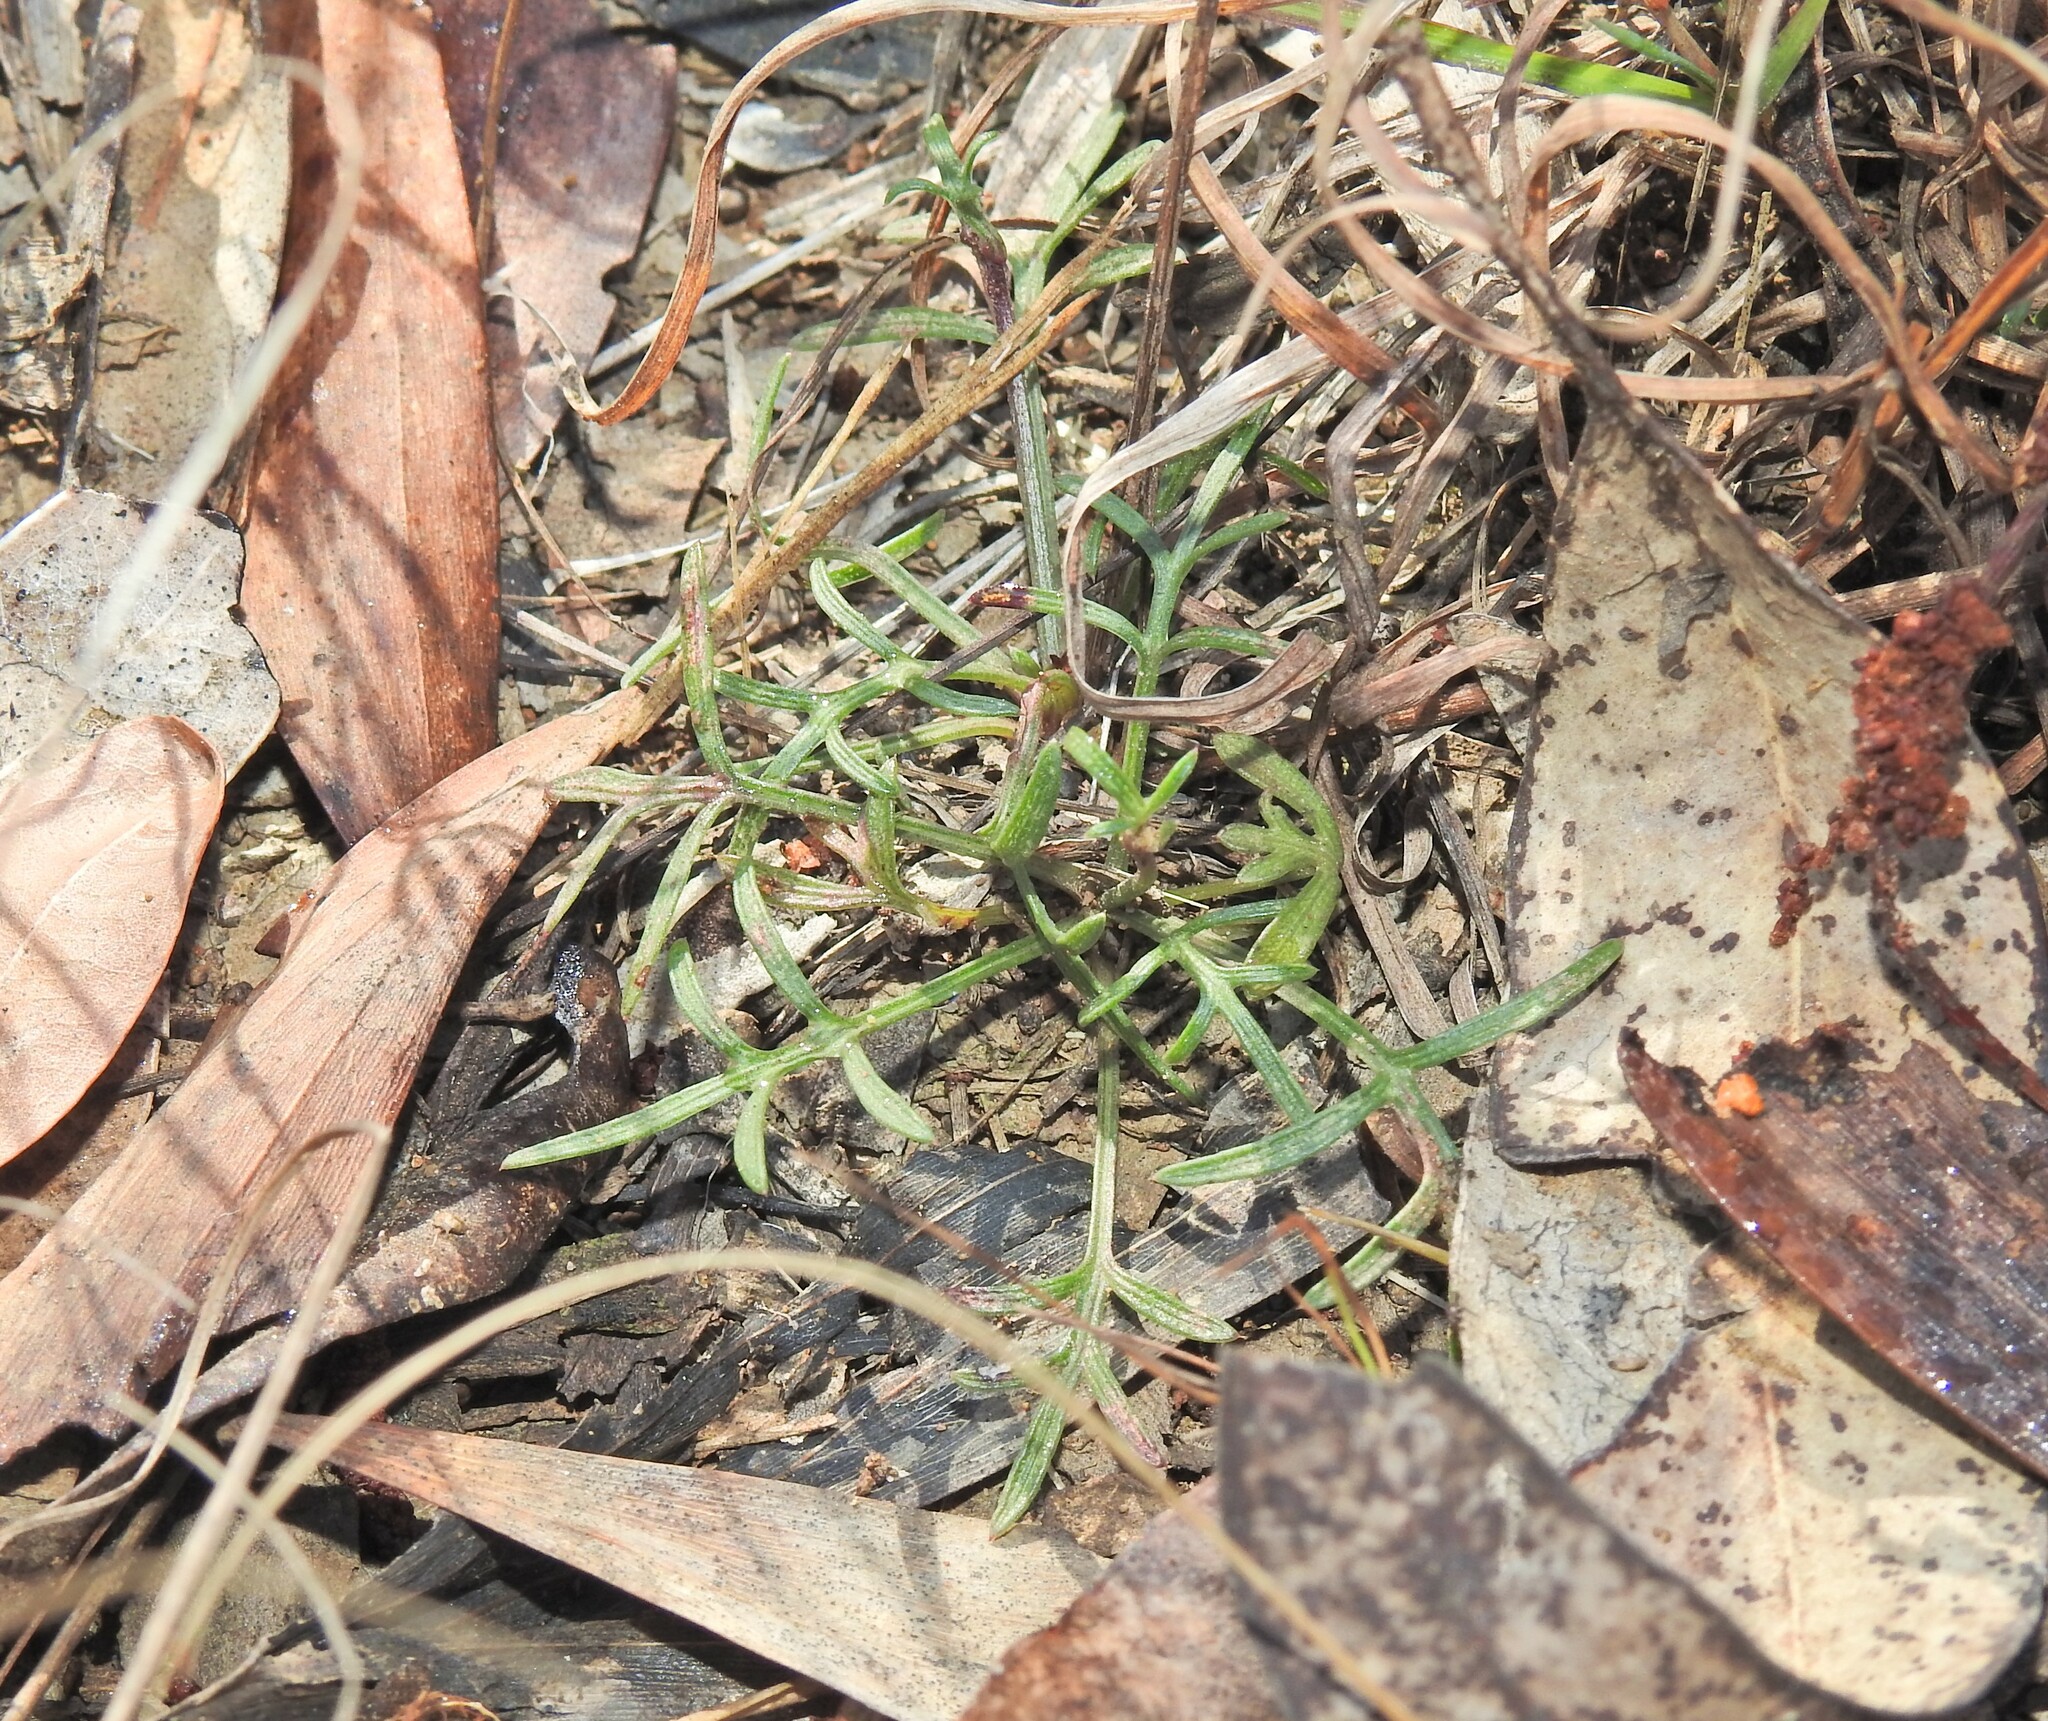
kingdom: Plantae
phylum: Tracheophyta
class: Magnoliopsida
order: Asterales
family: Asteraceae
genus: Glossocardia
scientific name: Glossocardia bidens
